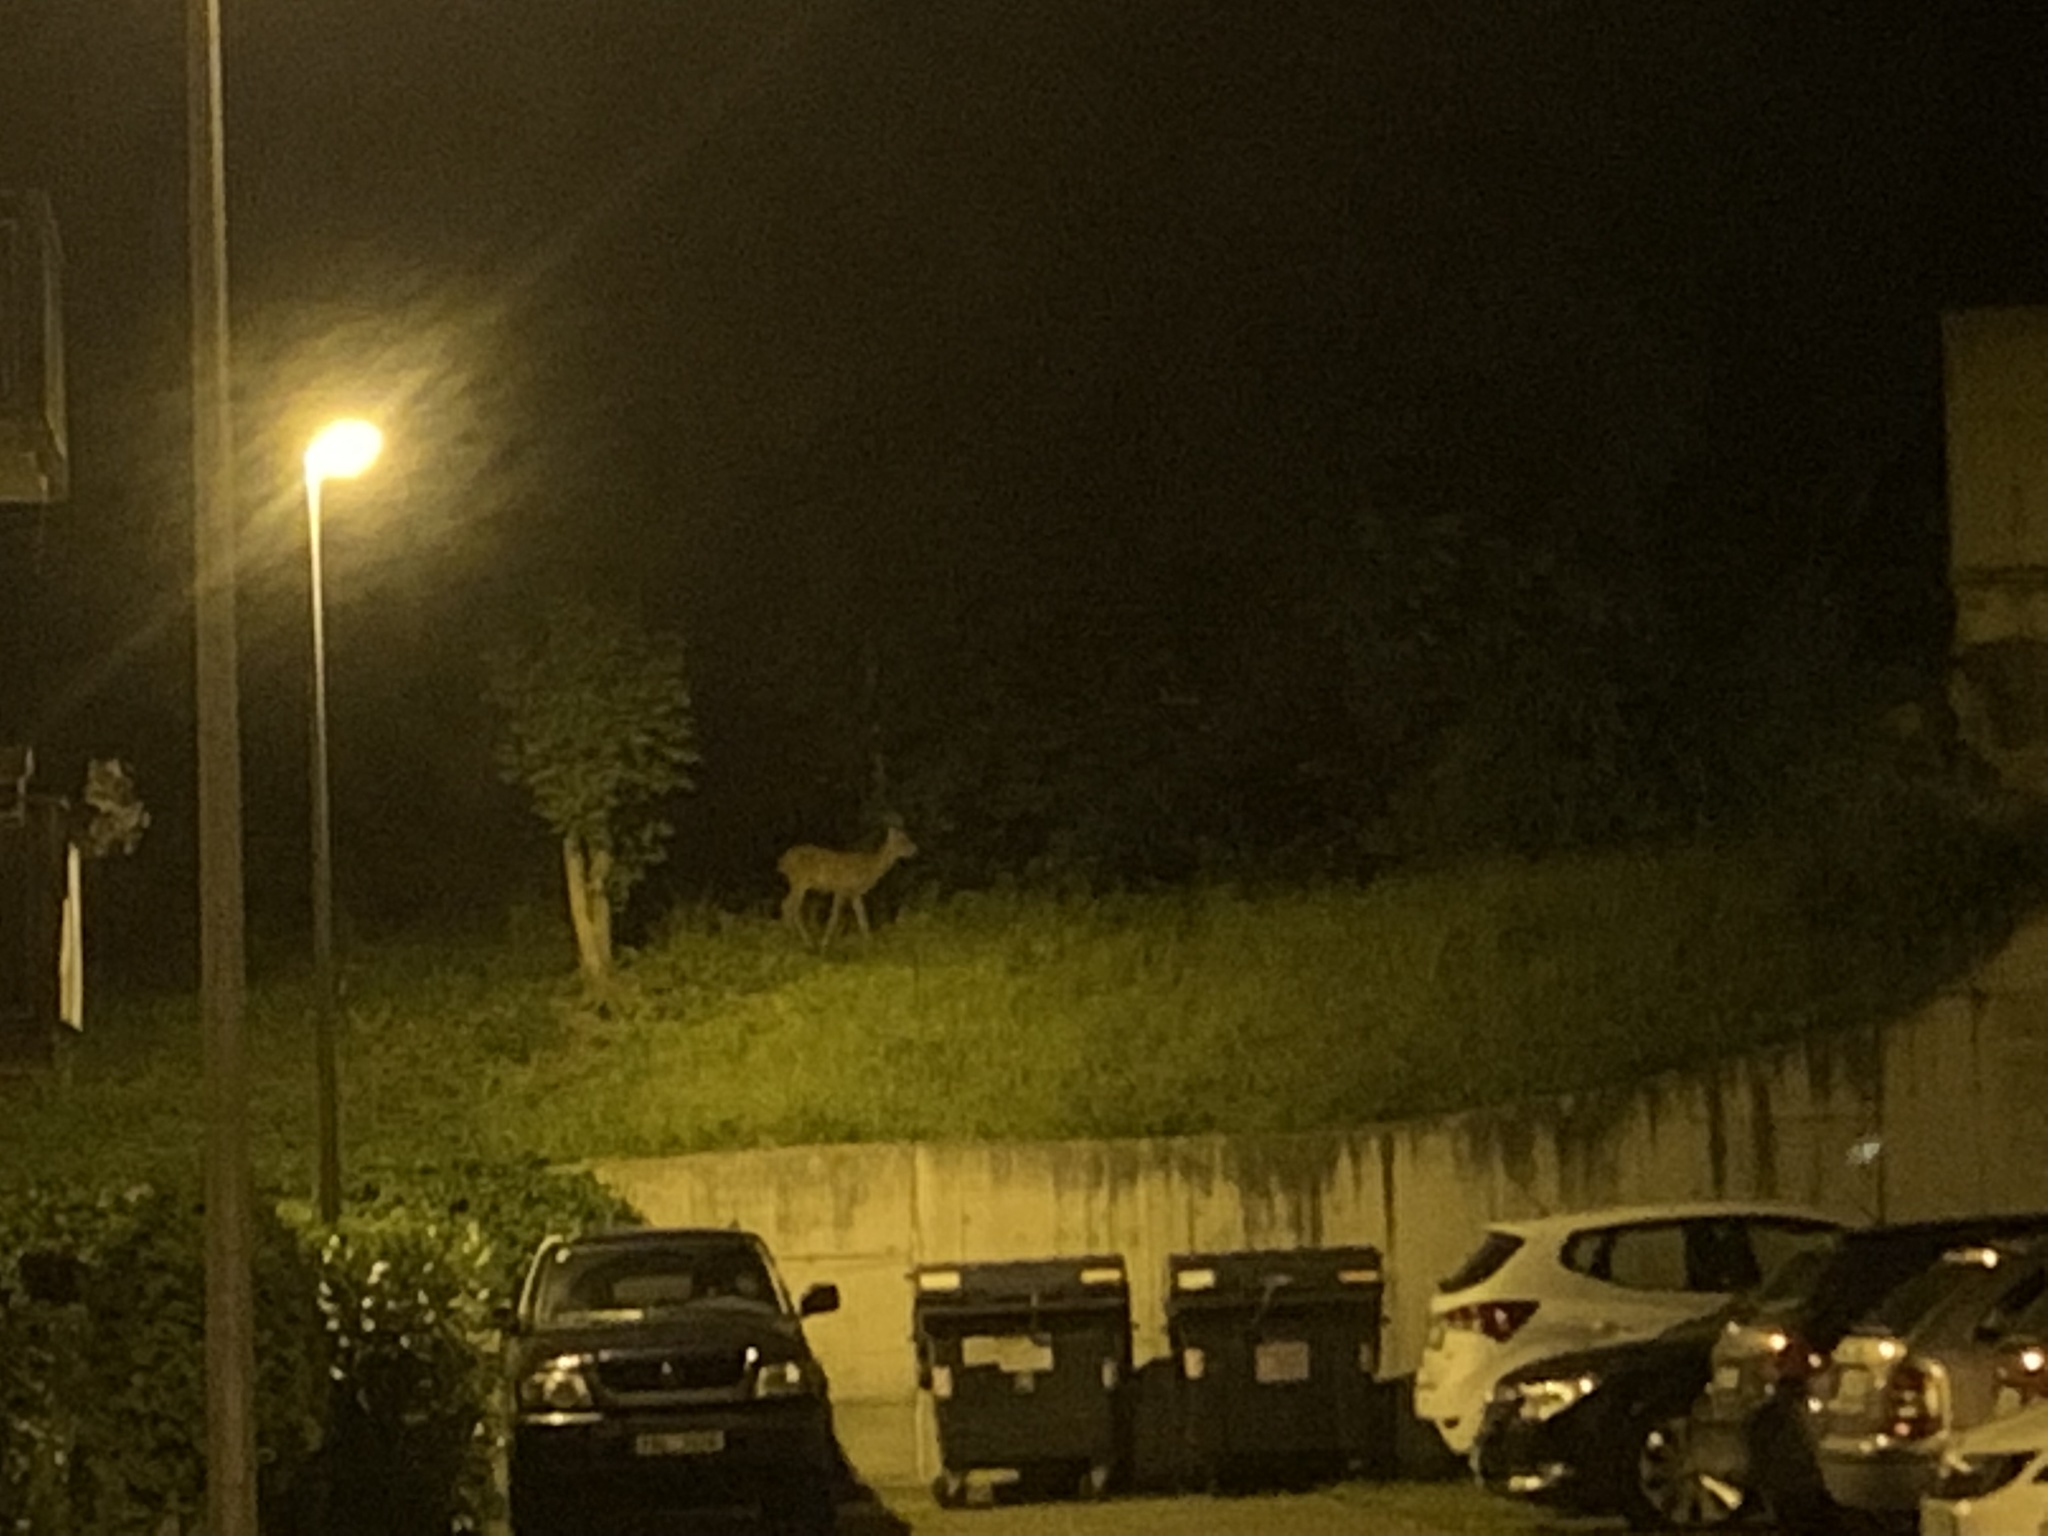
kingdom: Animalia
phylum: Chordata
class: Mammalia
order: Artiodactyla
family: Cervidae
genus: Capreolus
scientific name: Capreolus capreolus
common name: Western roe deer
